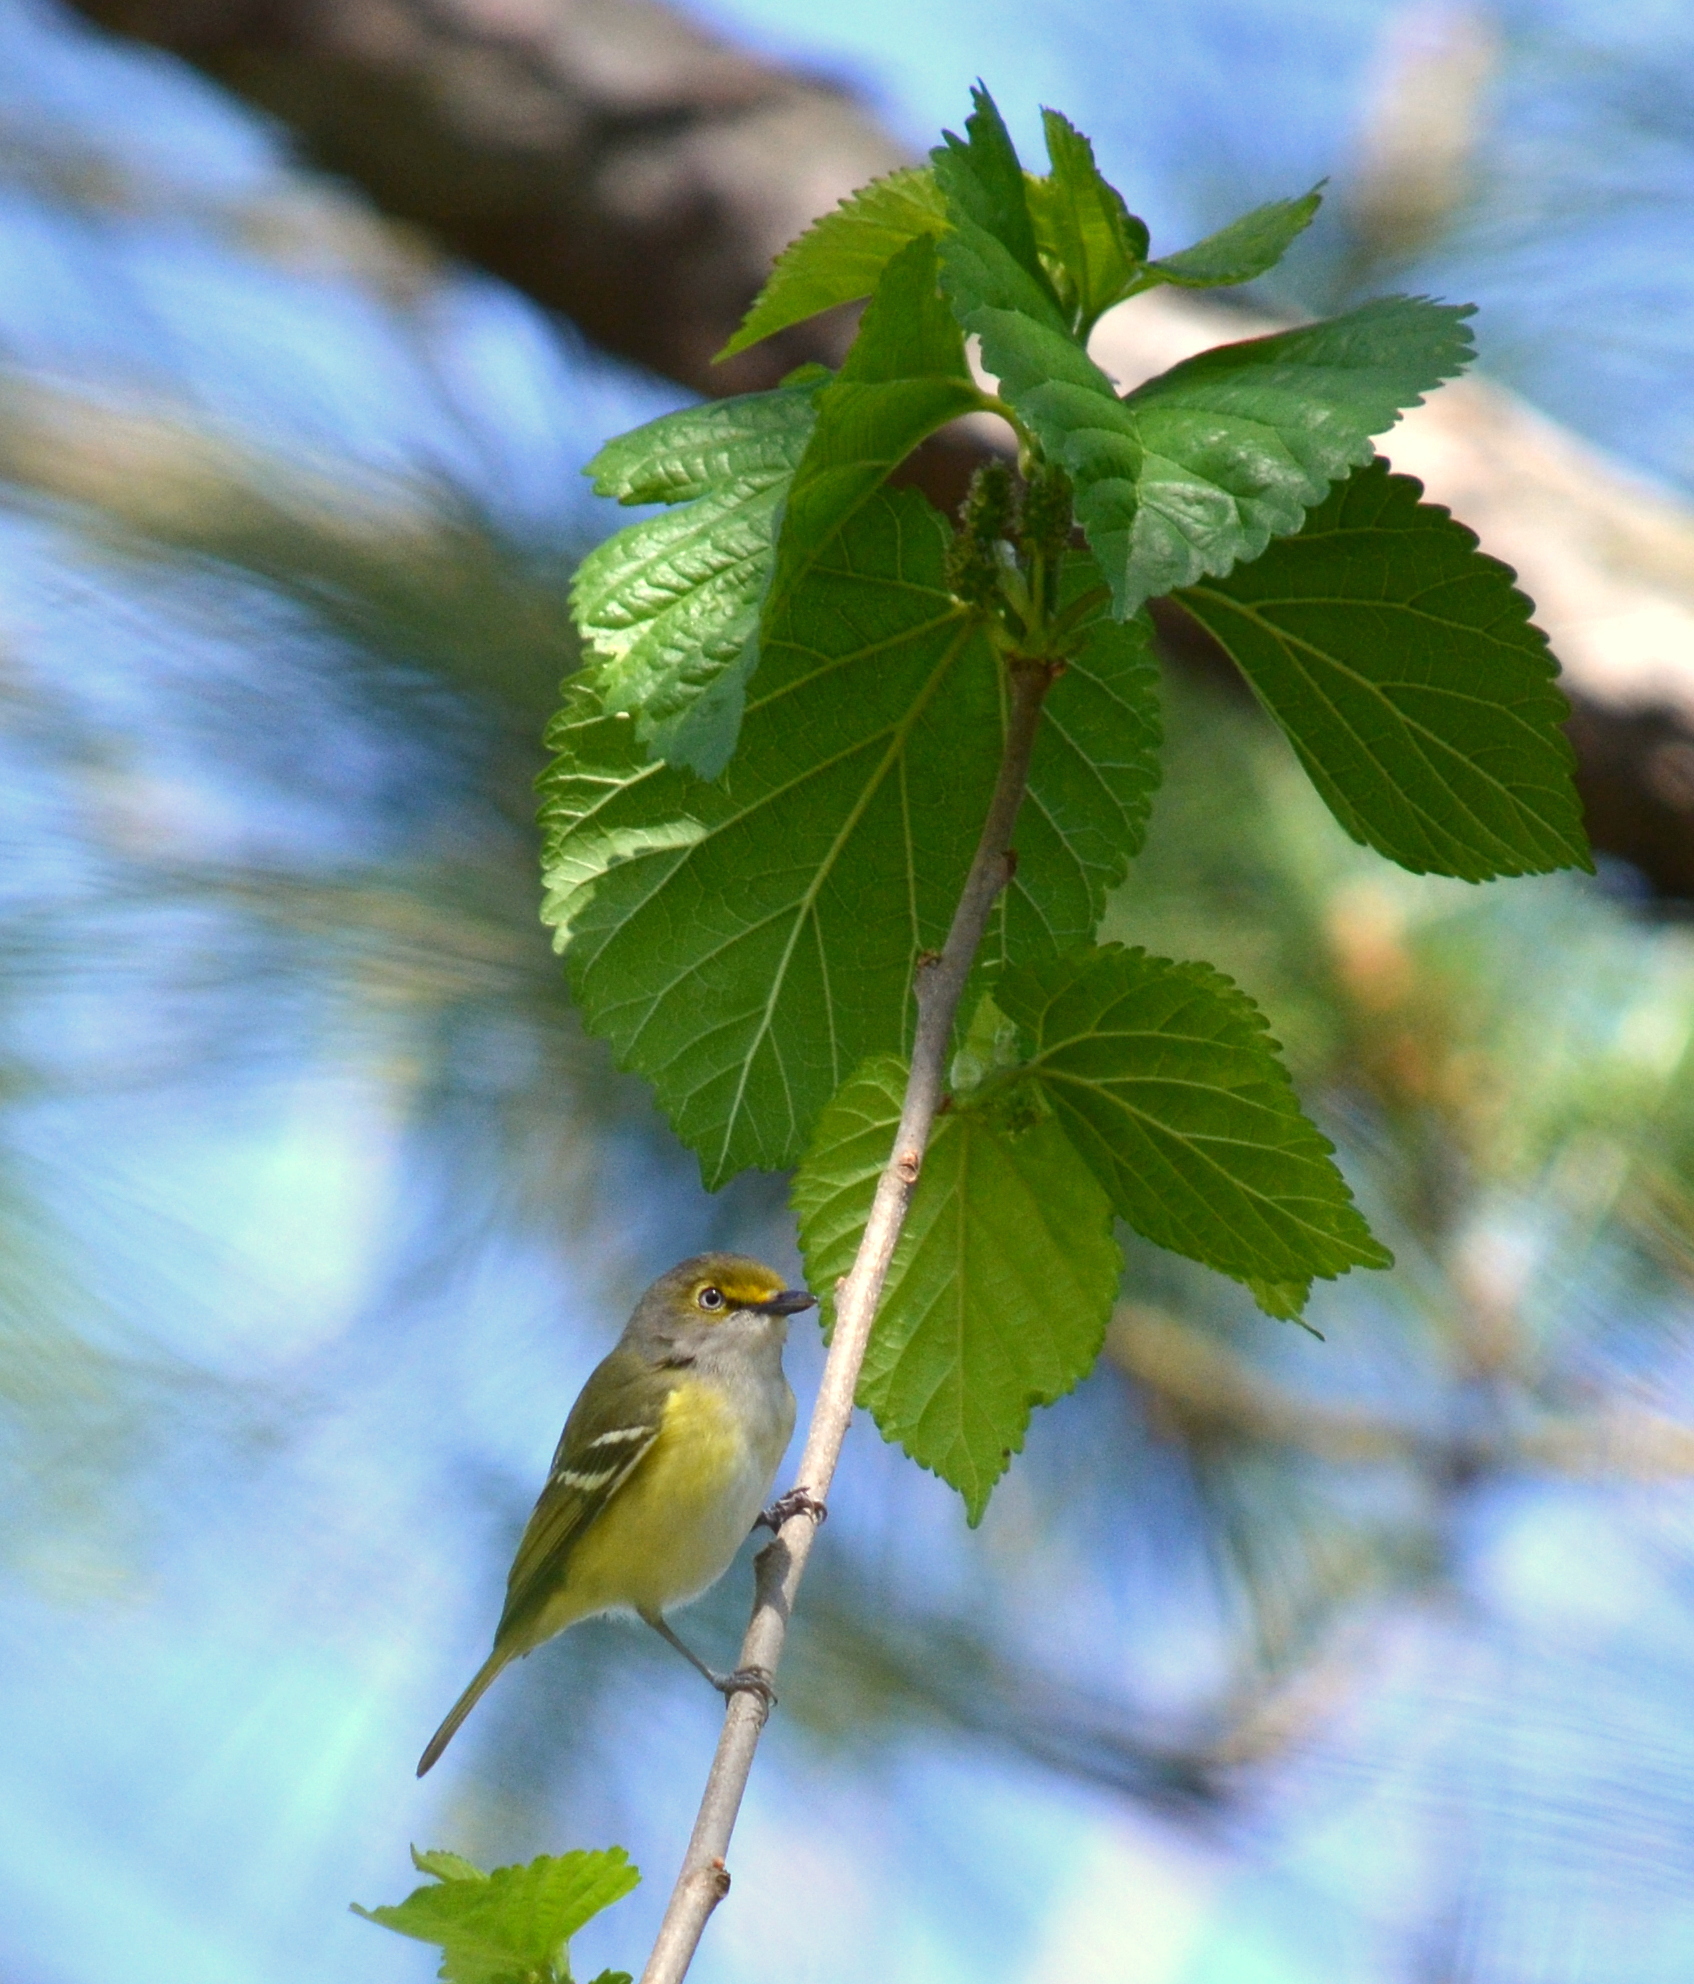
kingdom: Animalia
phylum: Chordata
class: Aves
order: Passeriformes
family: Vireonidae
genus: Vireo
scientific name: Vireo griseus
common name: White-eyed vireo
